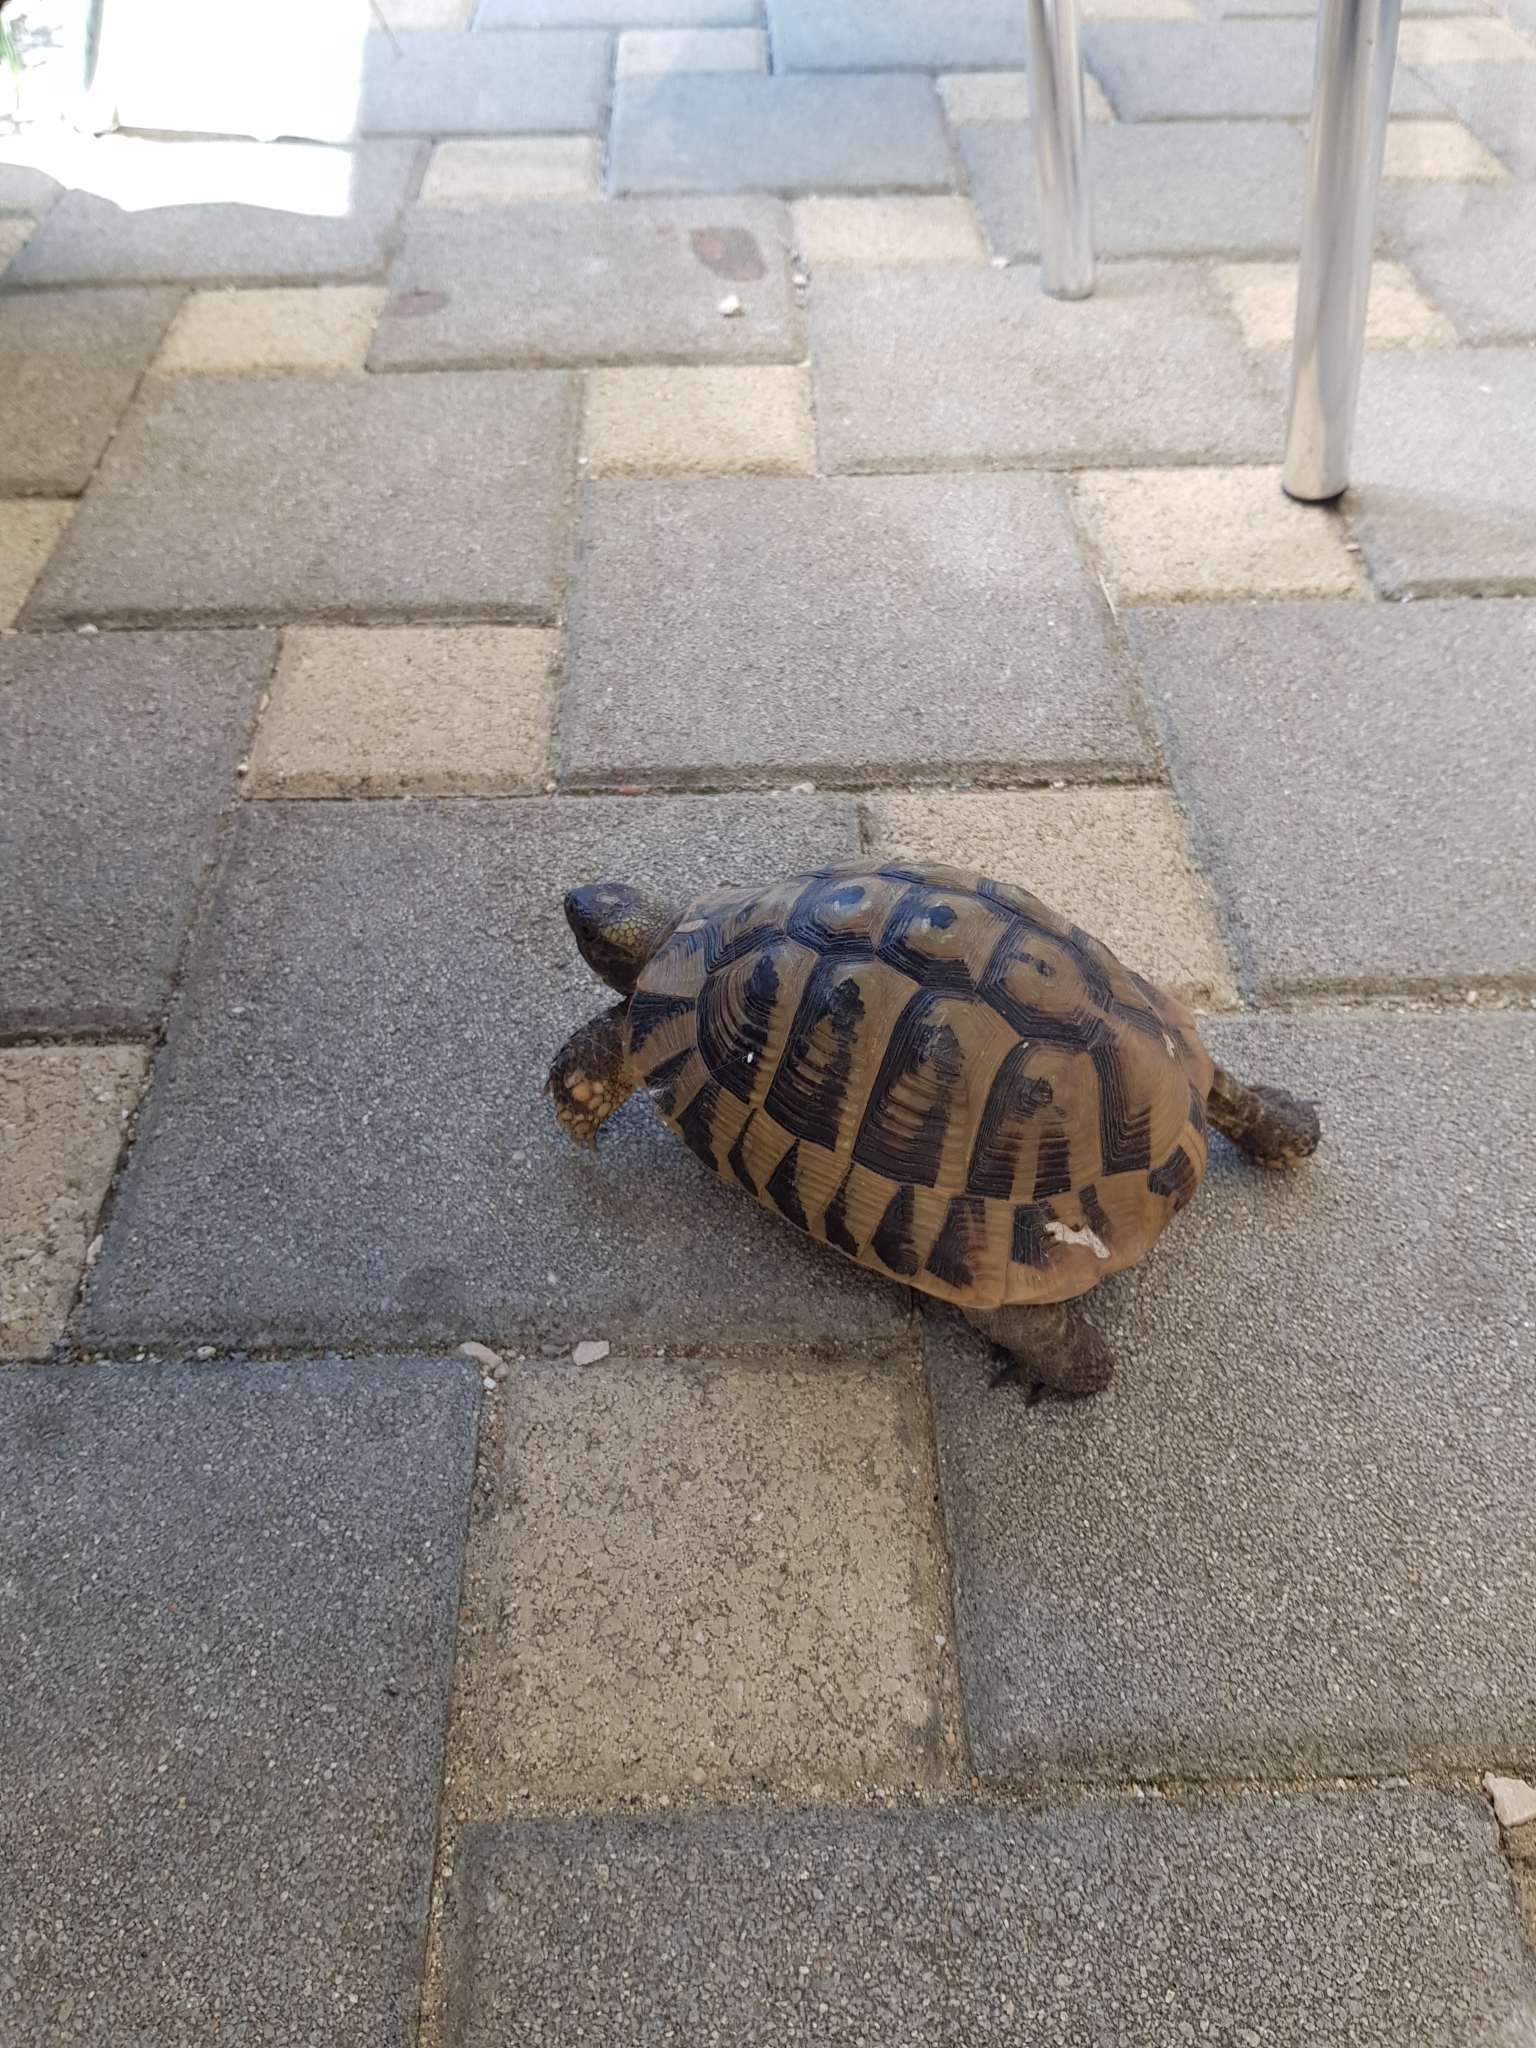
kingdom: Animalia
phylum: Chordata
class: Testudines
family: Testudinidae
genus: Testudo
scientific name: Testudo hermanni
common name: Hermann's tortoise
